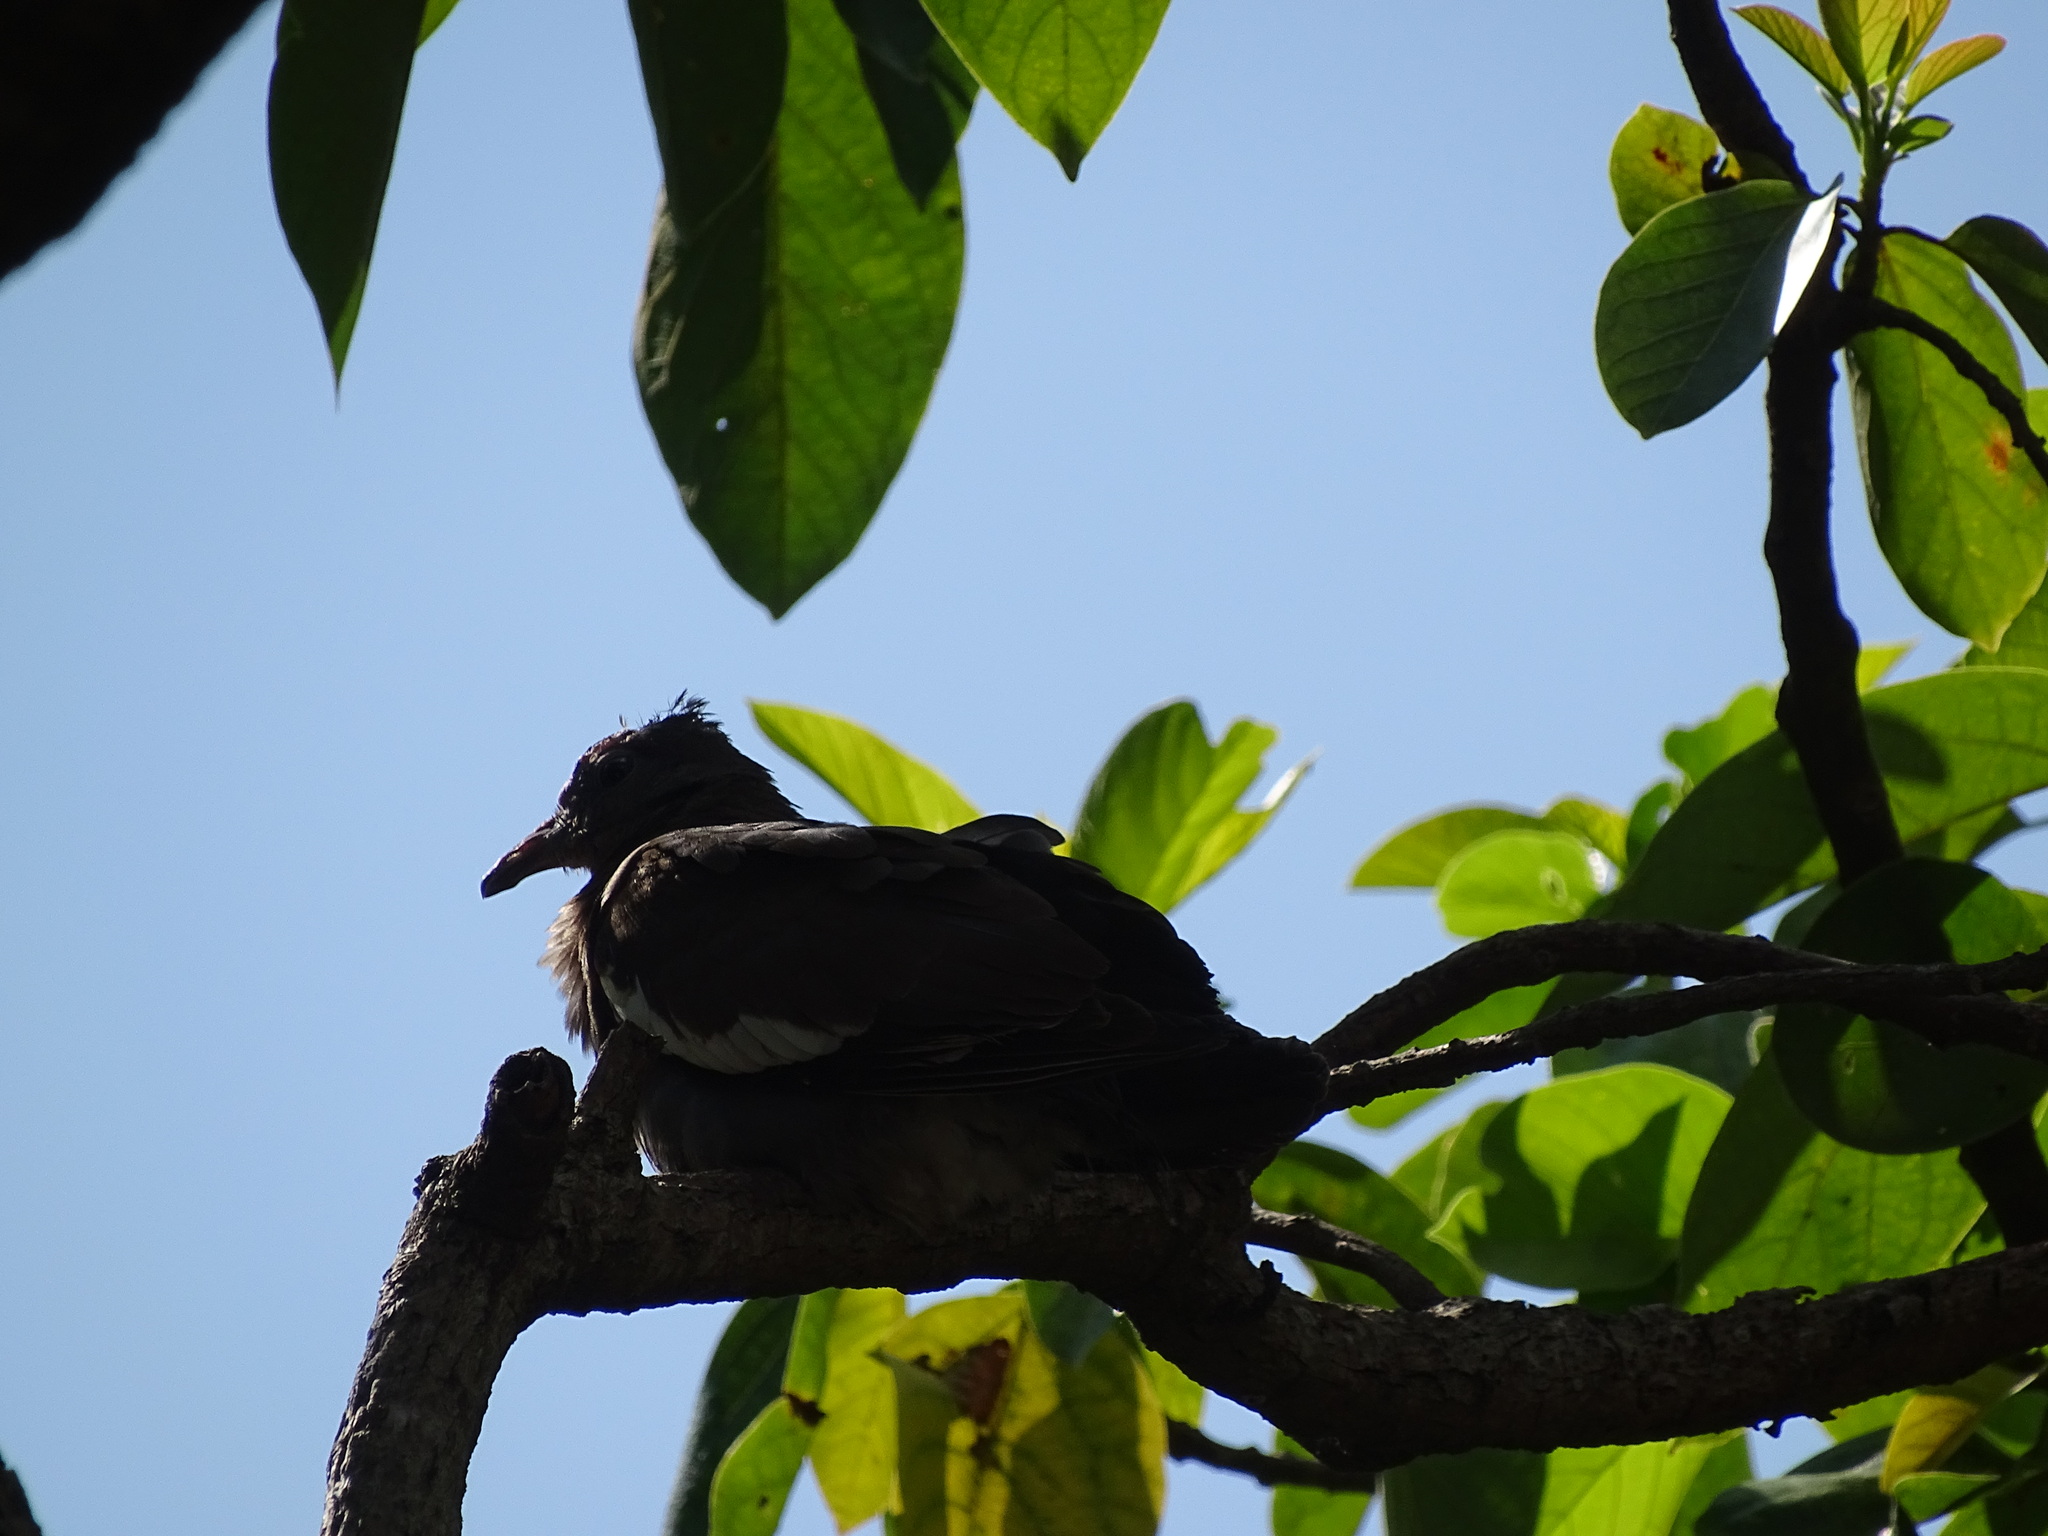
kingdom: Animalia
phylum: Chordata
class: Aves
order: Columbiformes
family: Columbidae
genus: Zenaida
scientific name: Zenaida asiatica
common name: White-winged dove
